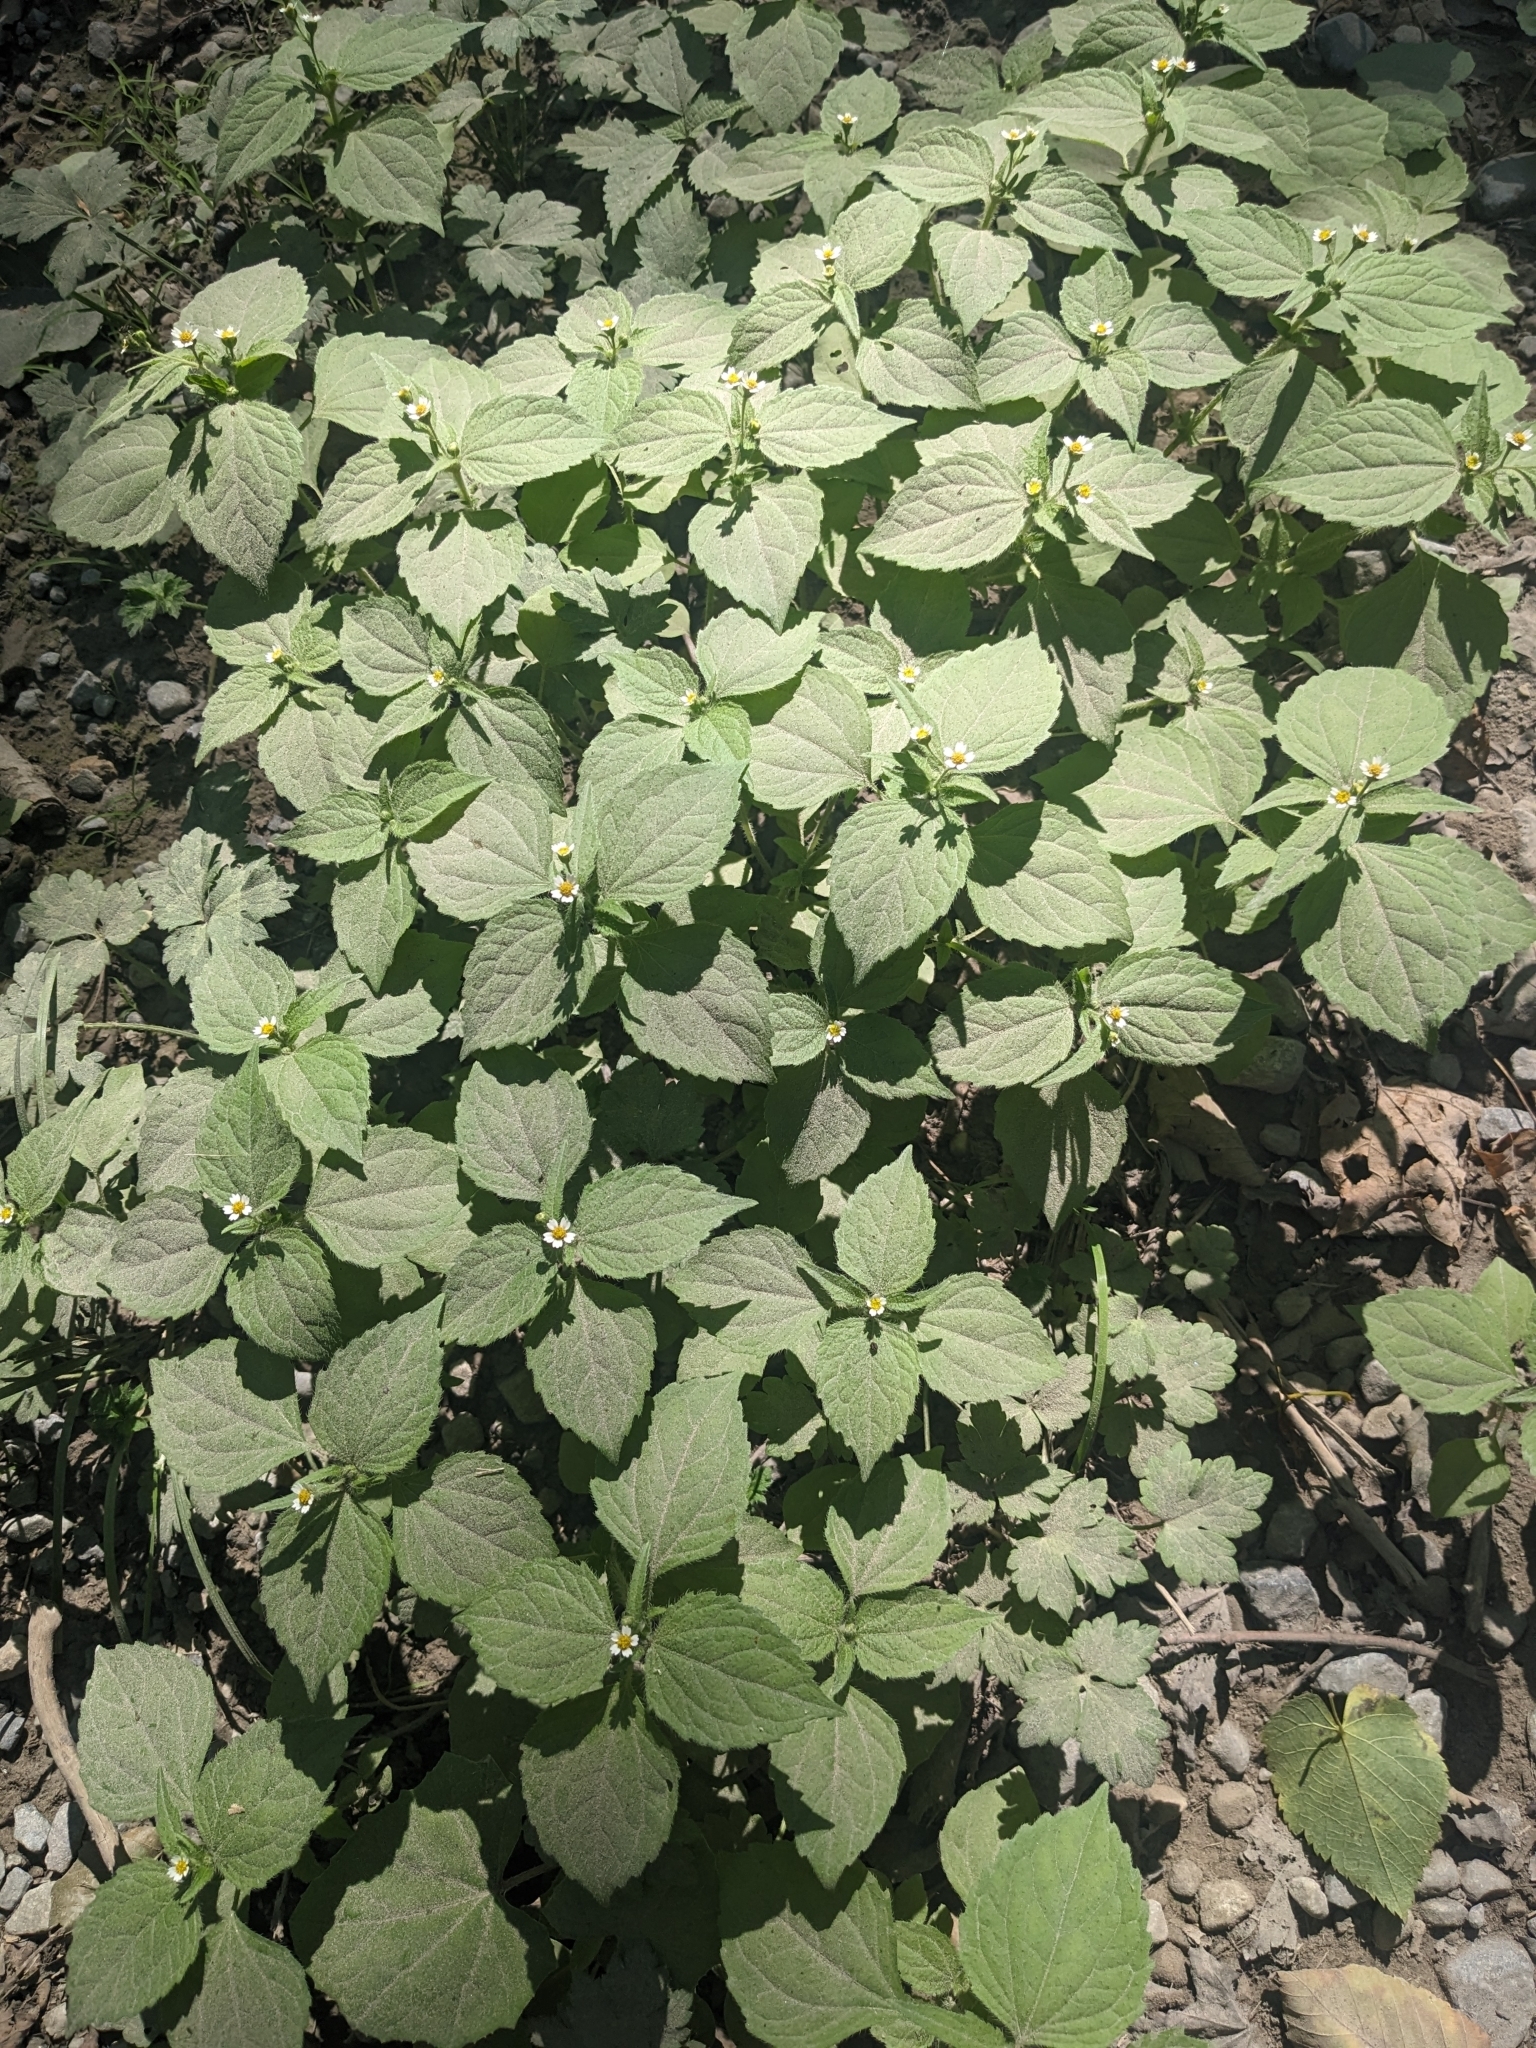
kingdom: Plantae
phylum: Tracheophyta
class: Magnoliopsida
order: Asterales
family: Asteraceae
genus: Galinsoga
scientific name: Galinsoga quadriradiata
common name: Shaggy soldier
